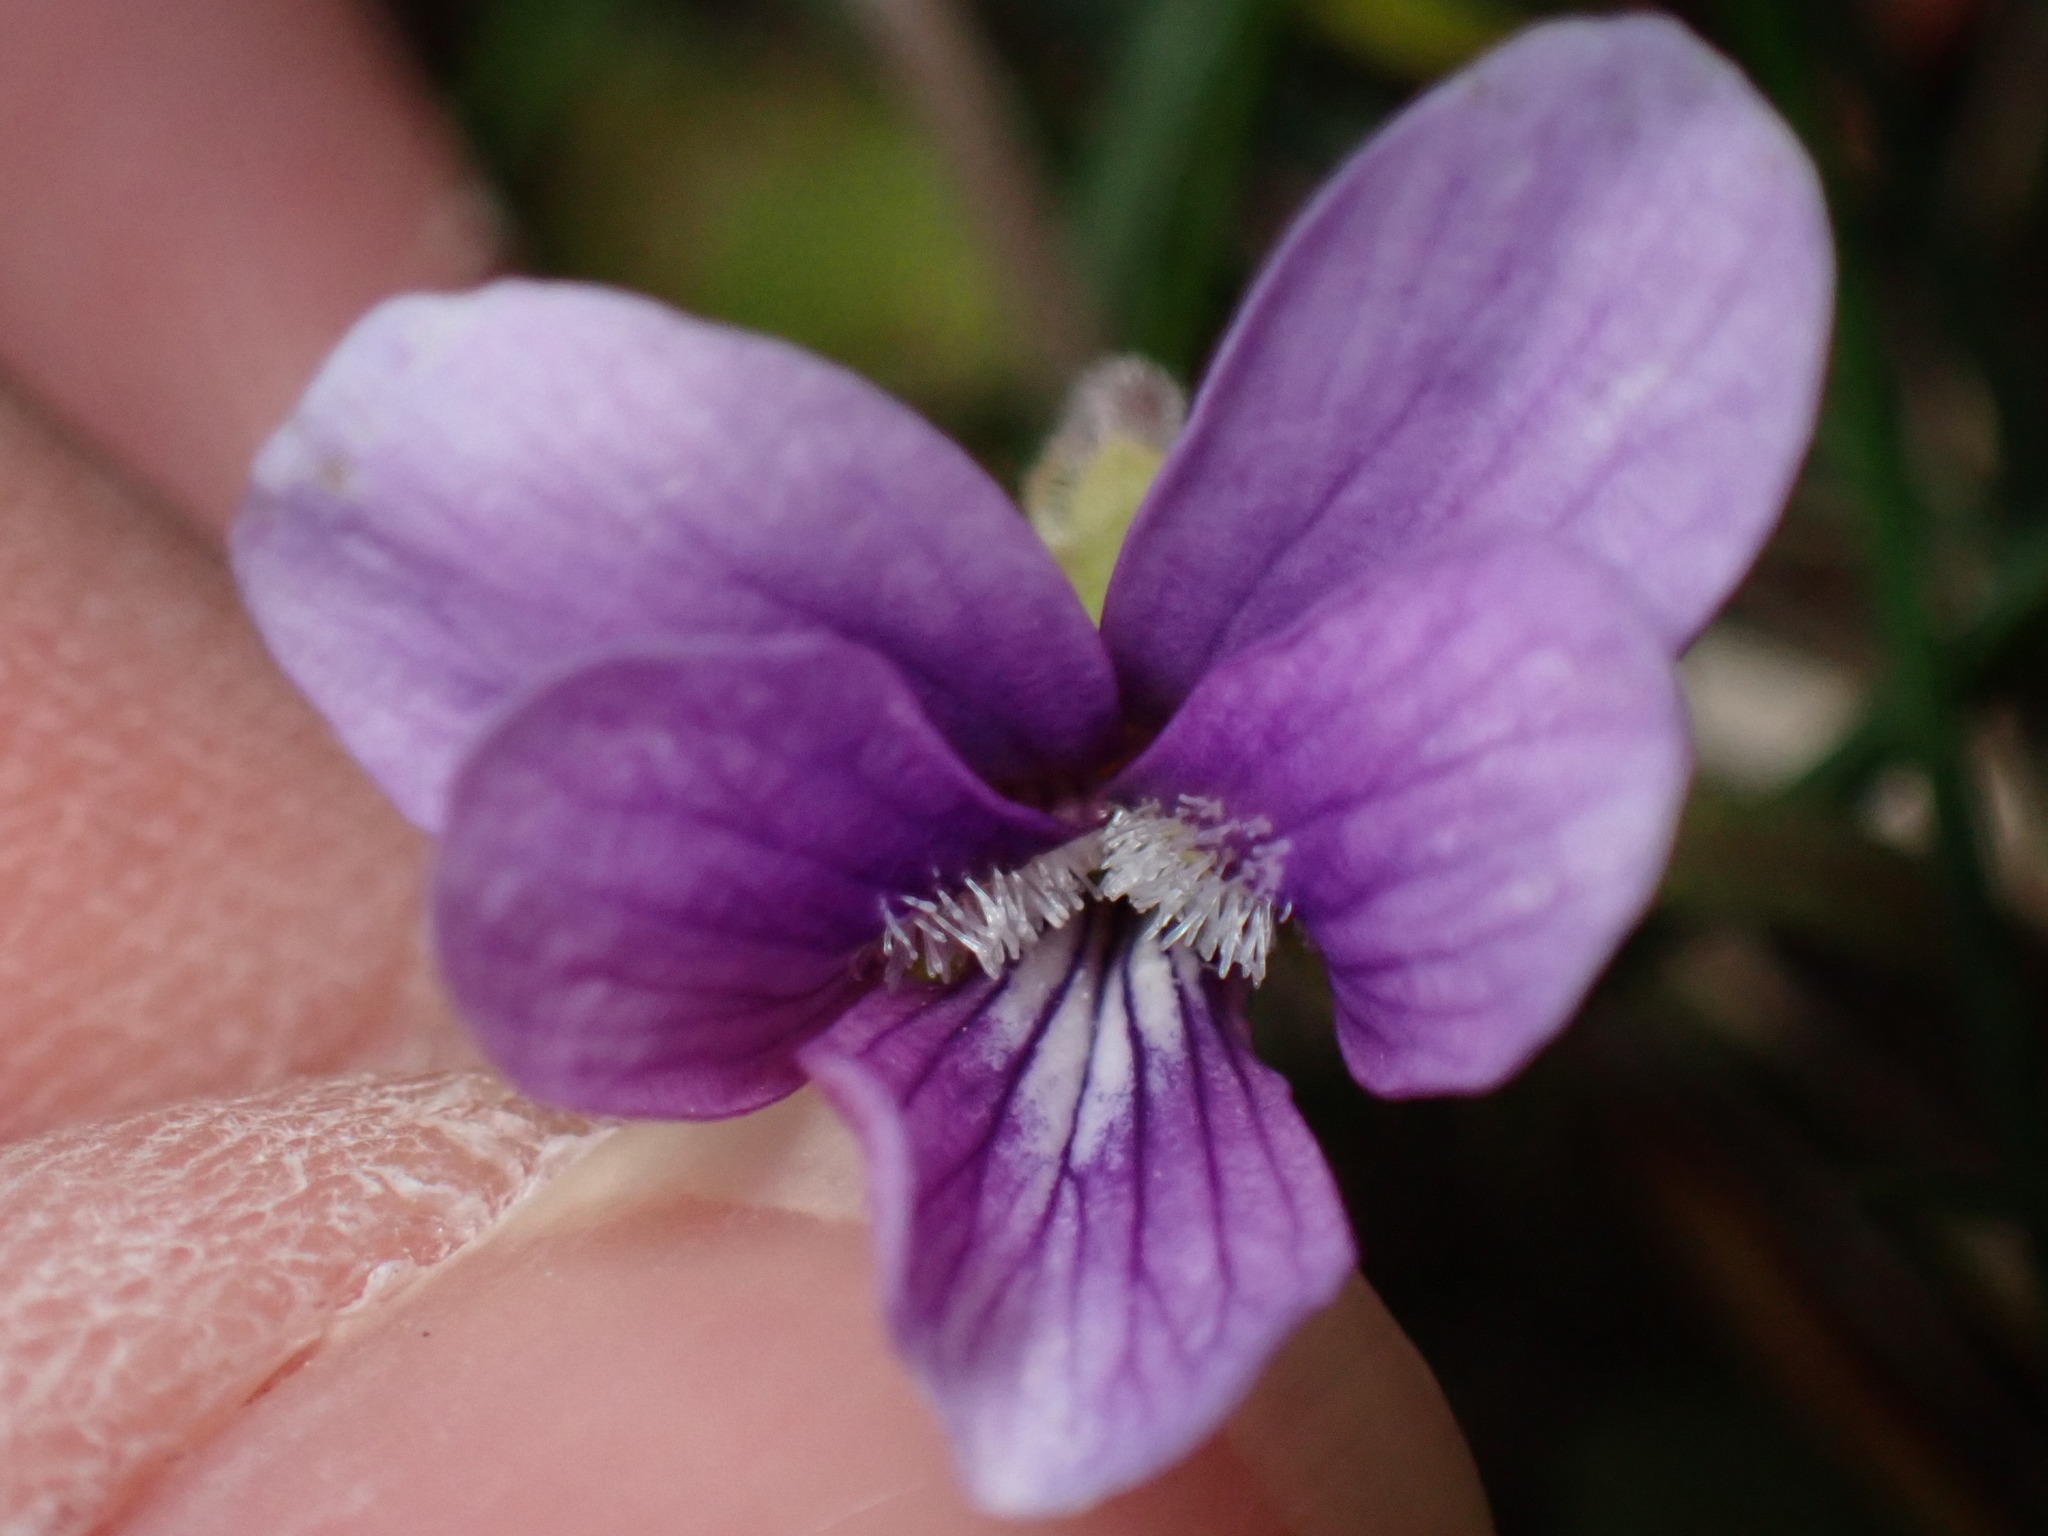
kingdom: Plantae
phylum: Tracheophyta
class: Magnoliopsida
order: Malpighiales
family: Violaceae
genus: Viola
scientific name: Viola phalacrocarpa
